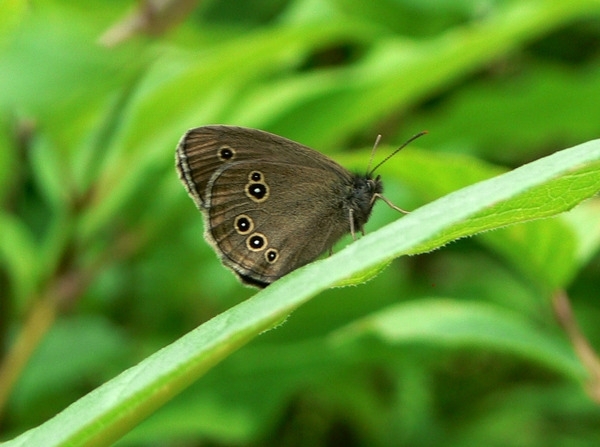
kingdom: Animalia
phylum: Arthropoda
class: Insecta
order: Lepidoptera
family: Nymphalidae
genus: Aphantopus
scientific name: Aphantopus hyperantus
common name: Ringlet
